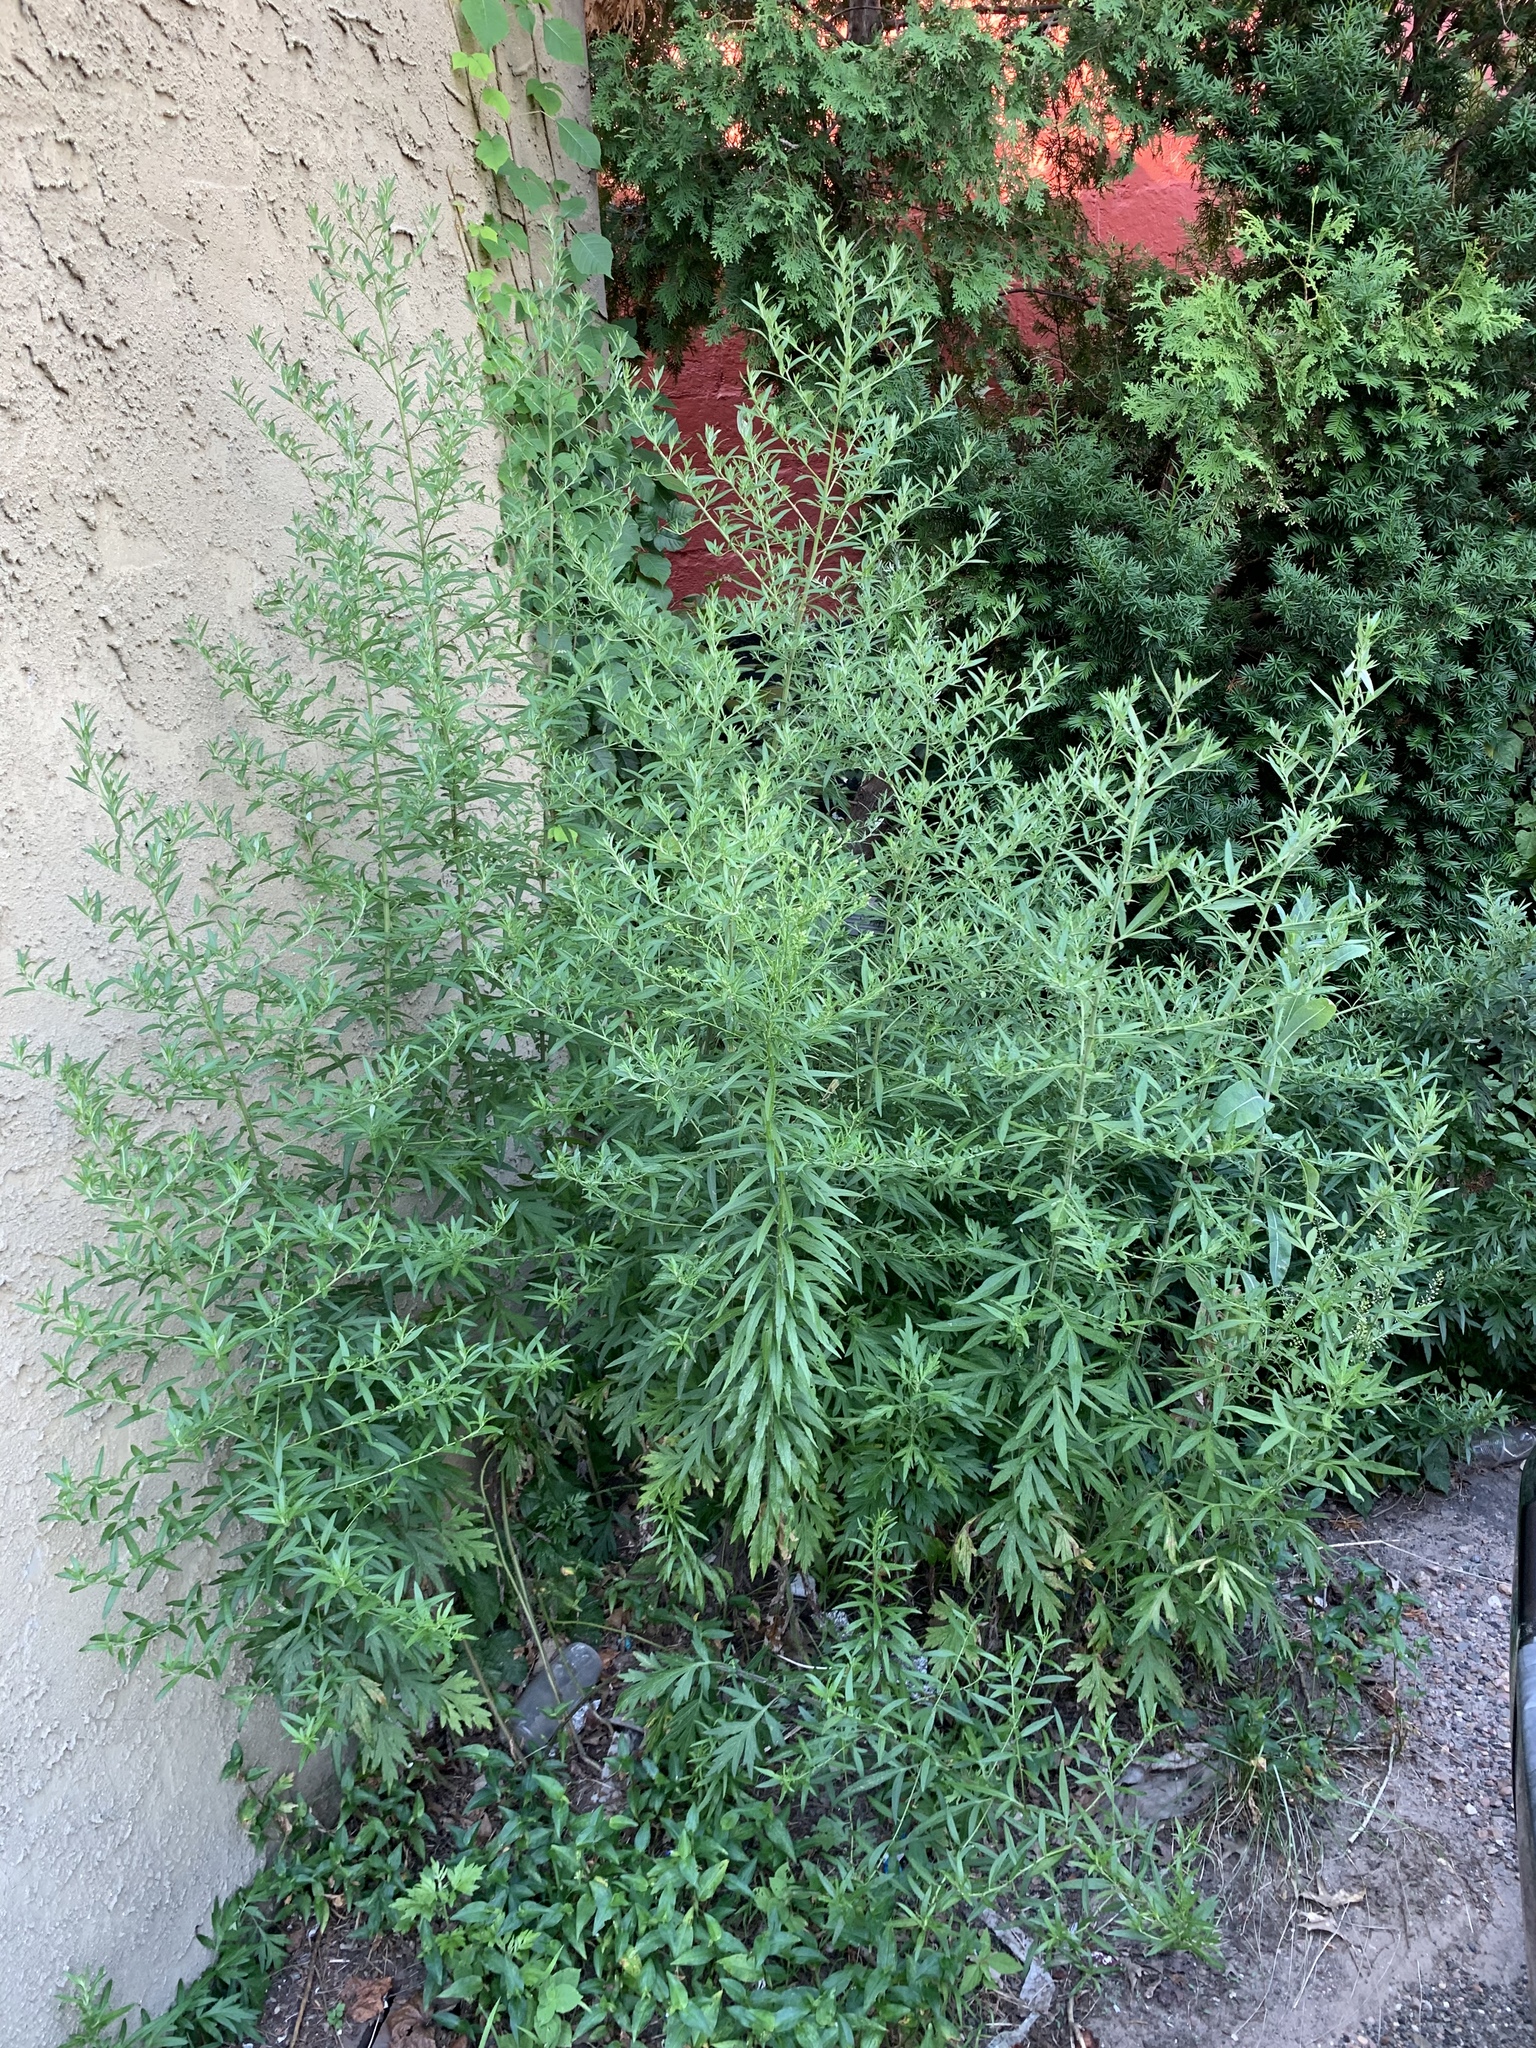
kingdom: Plantae
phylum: Tracheophyta
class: Magnoliopsida
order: Asterales
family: Asteraceae
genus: Erigeron
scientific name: Erigeron canadensis
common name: Canadian fleabane
